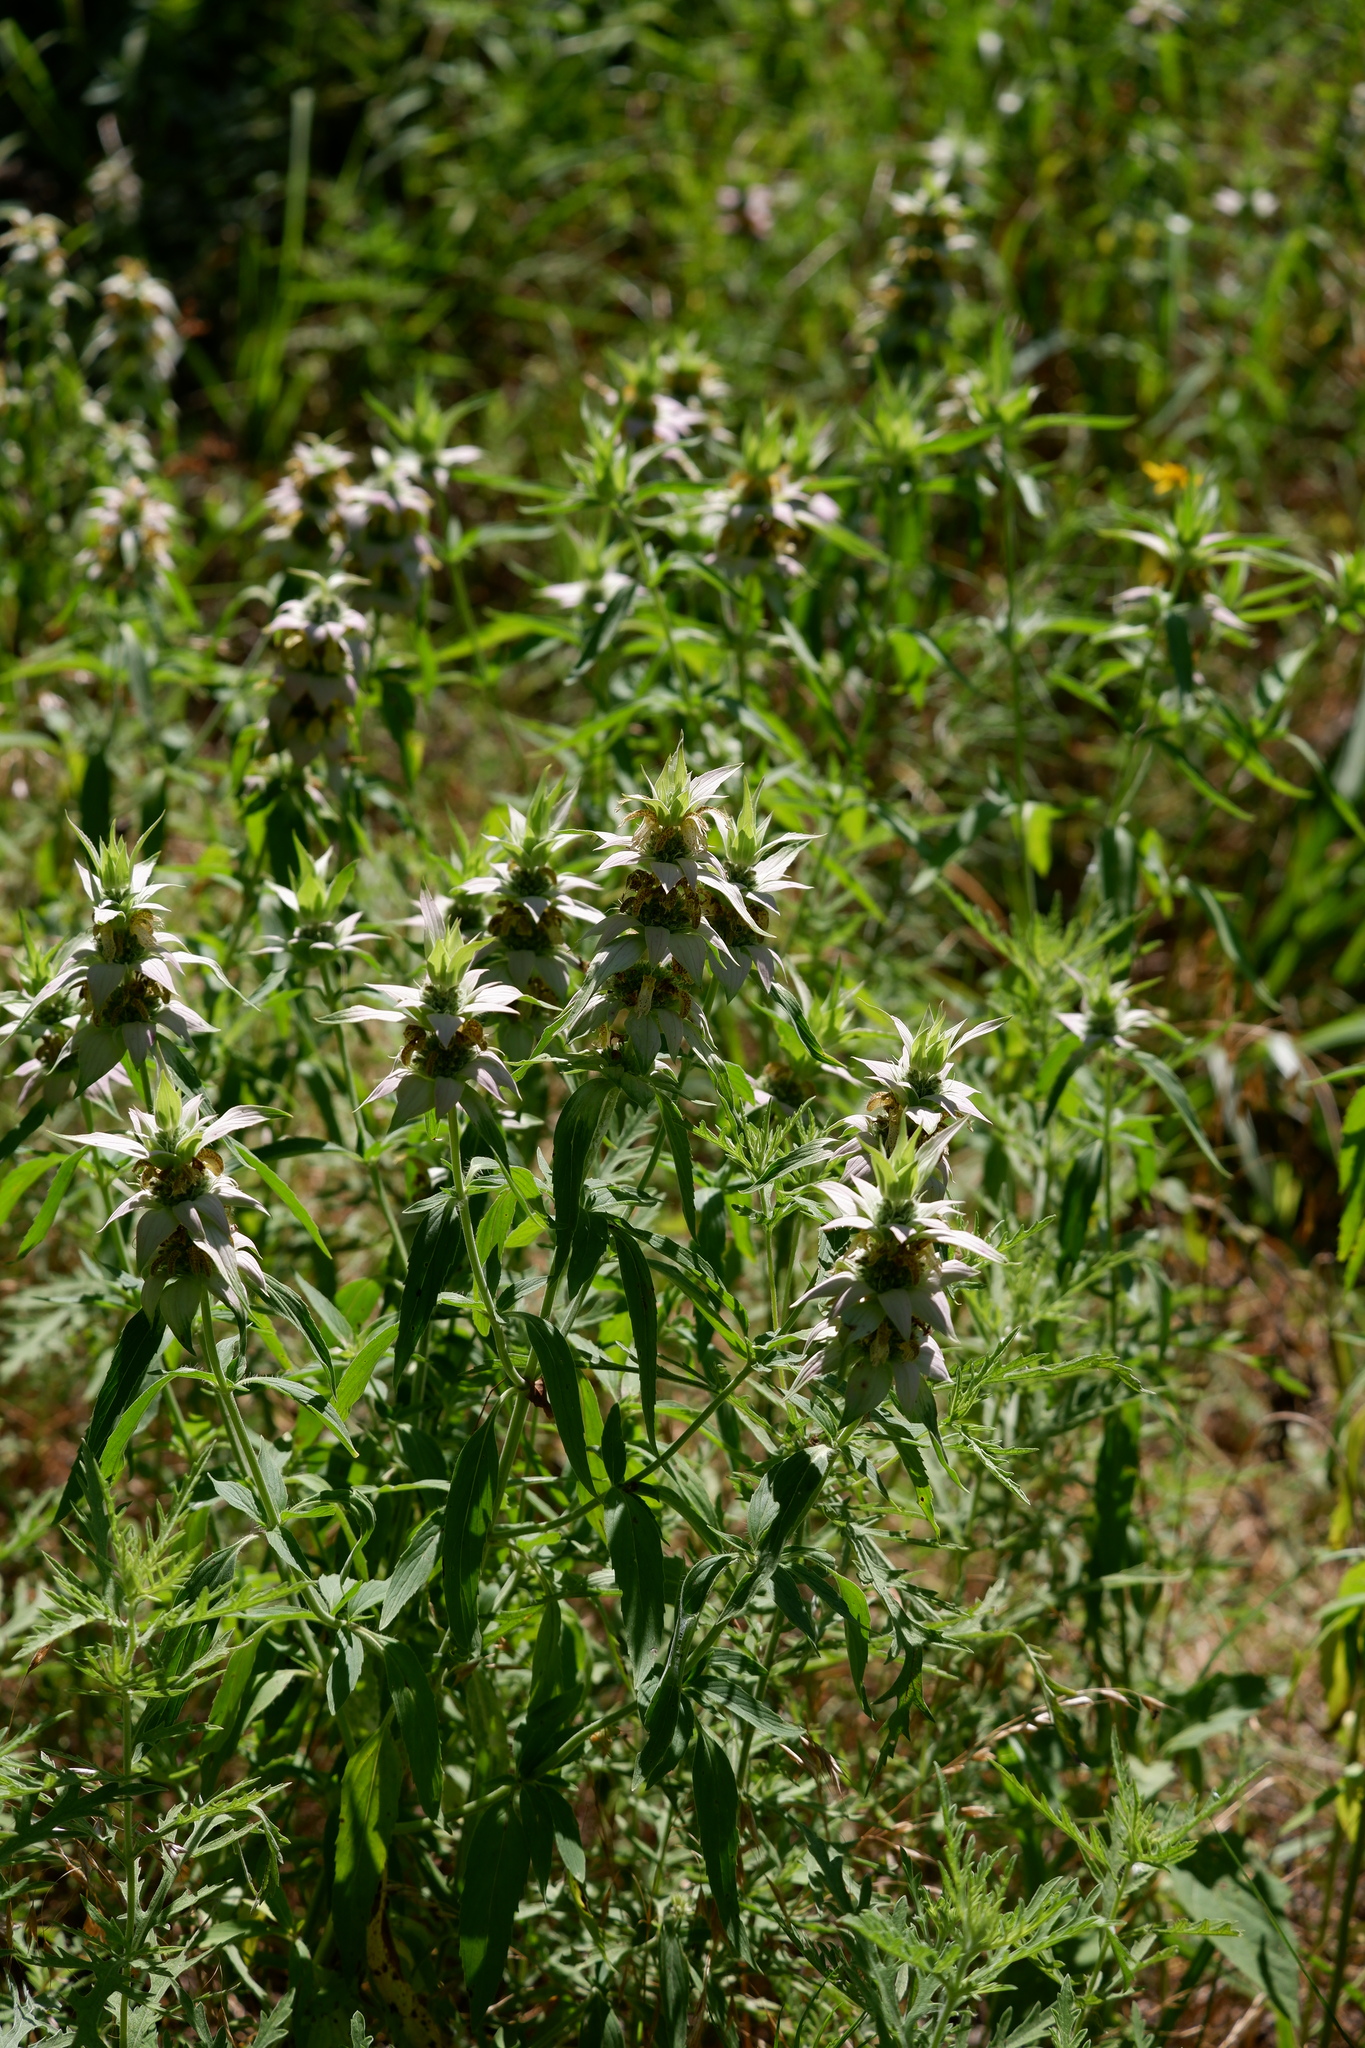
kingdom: Plantae
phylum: Tracheophyta
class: Magnoliopsida
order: Lamiales
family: Lamiaceae
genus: Monarda
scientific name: Monarda punctata
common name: Dotted monarda
